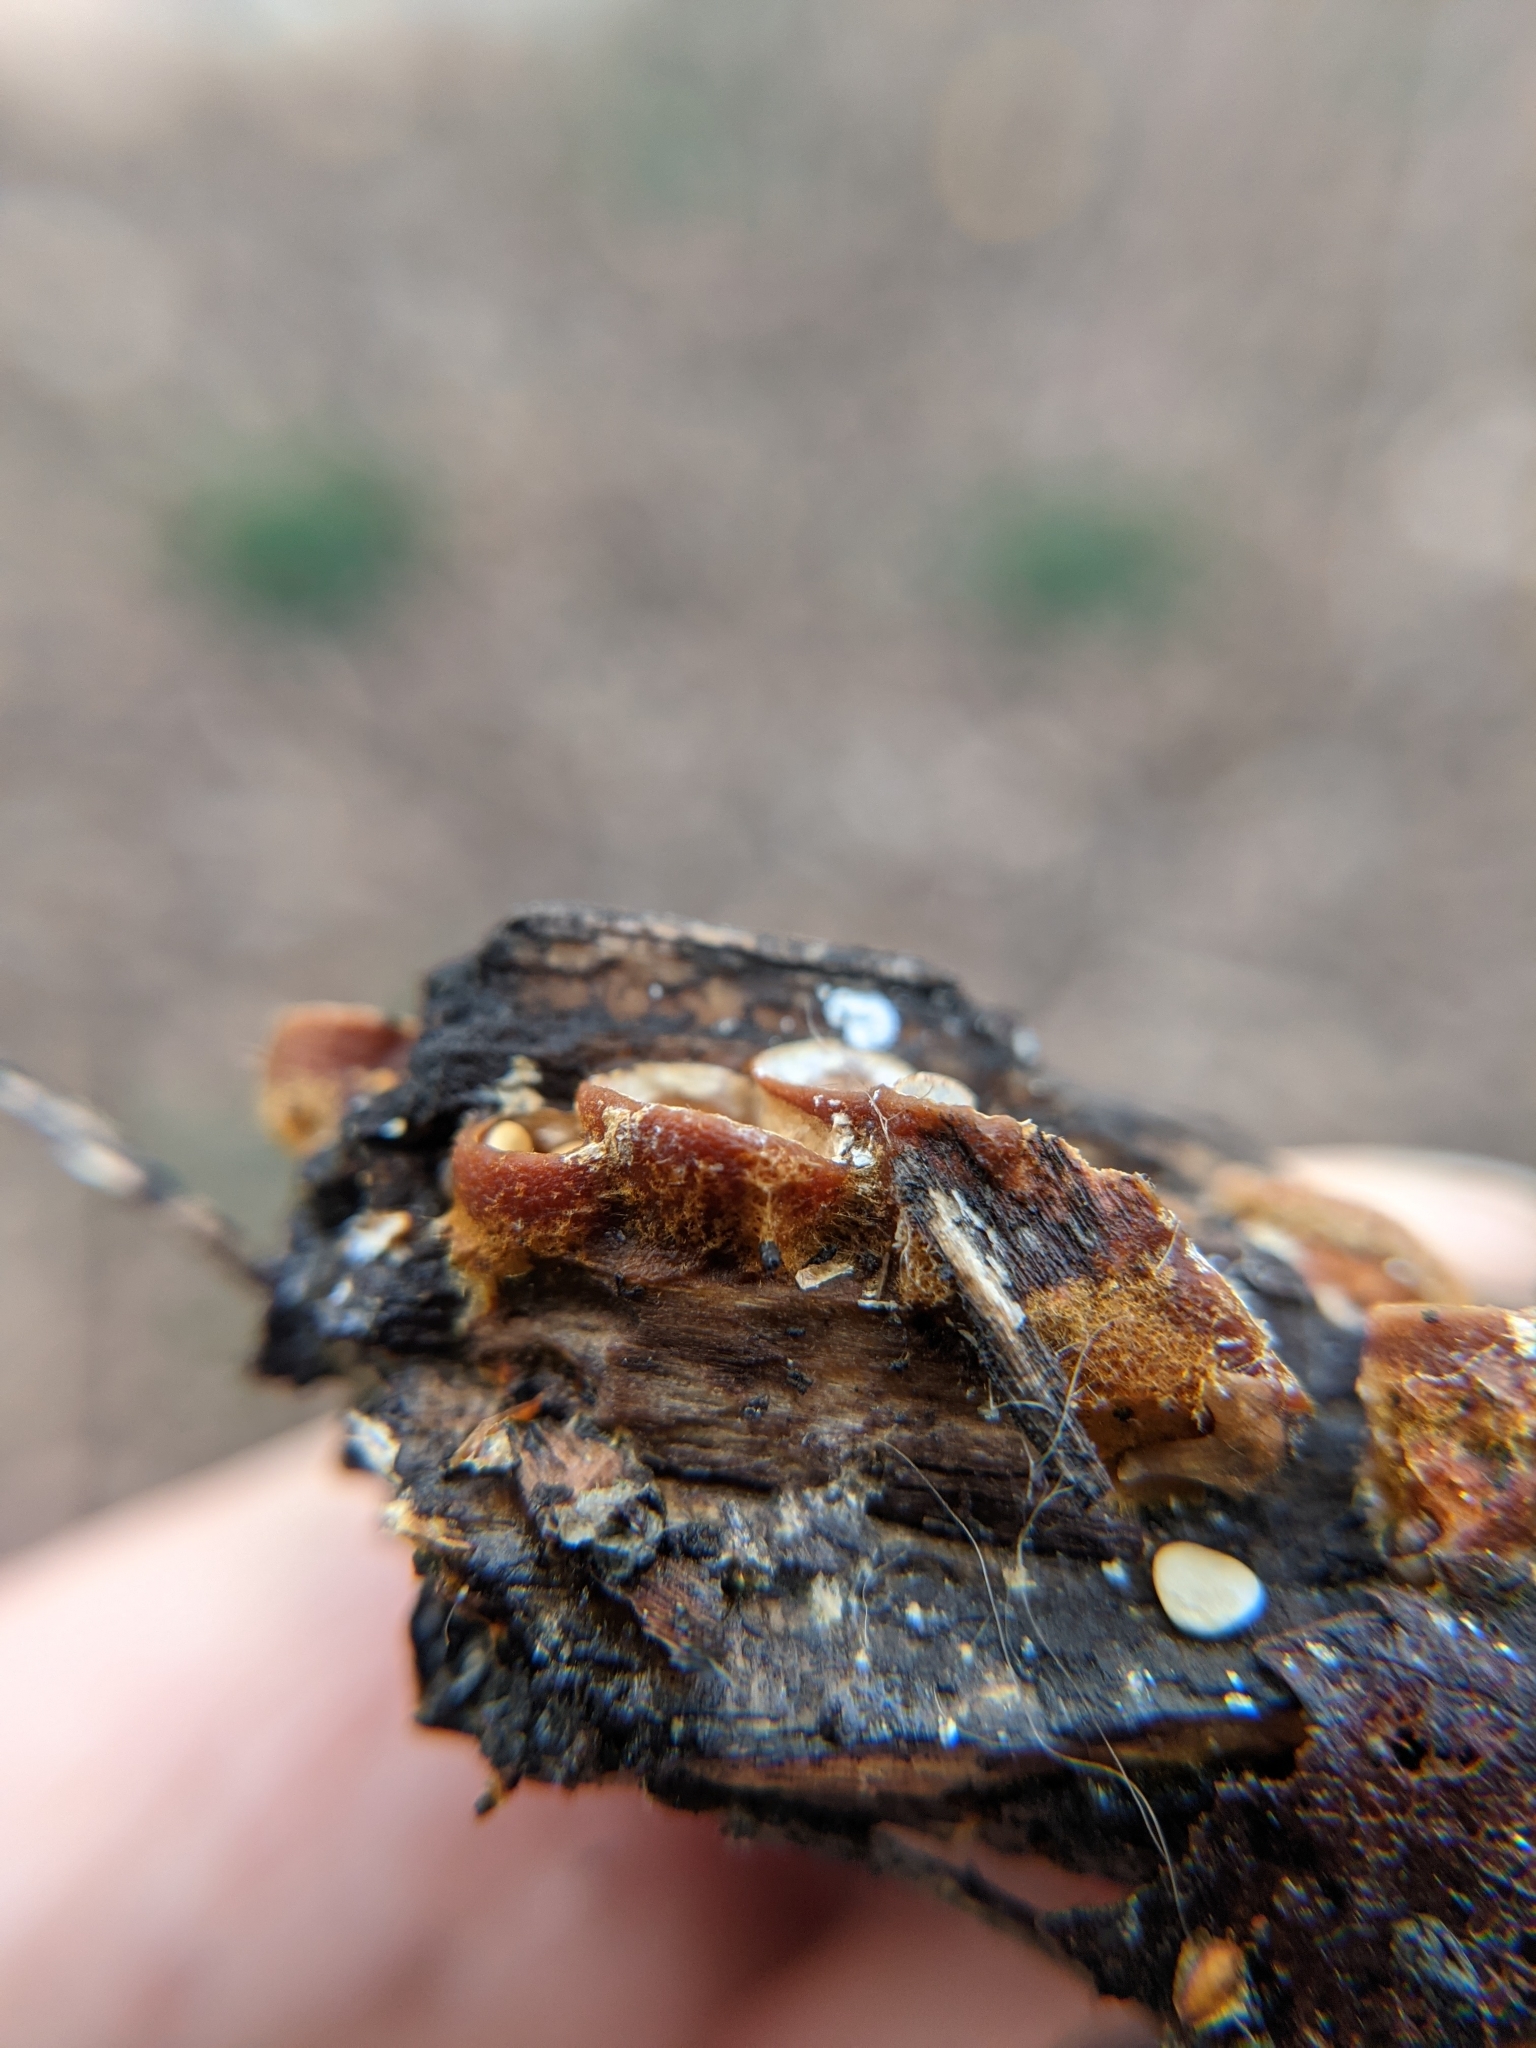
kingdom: Fungi
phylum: Basidiomycota
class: Agaricomycetes
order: Agaricales
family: Nidulariaceae
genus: Crucibulum
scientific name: Crucibulum laeve
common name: Common bird's nest
